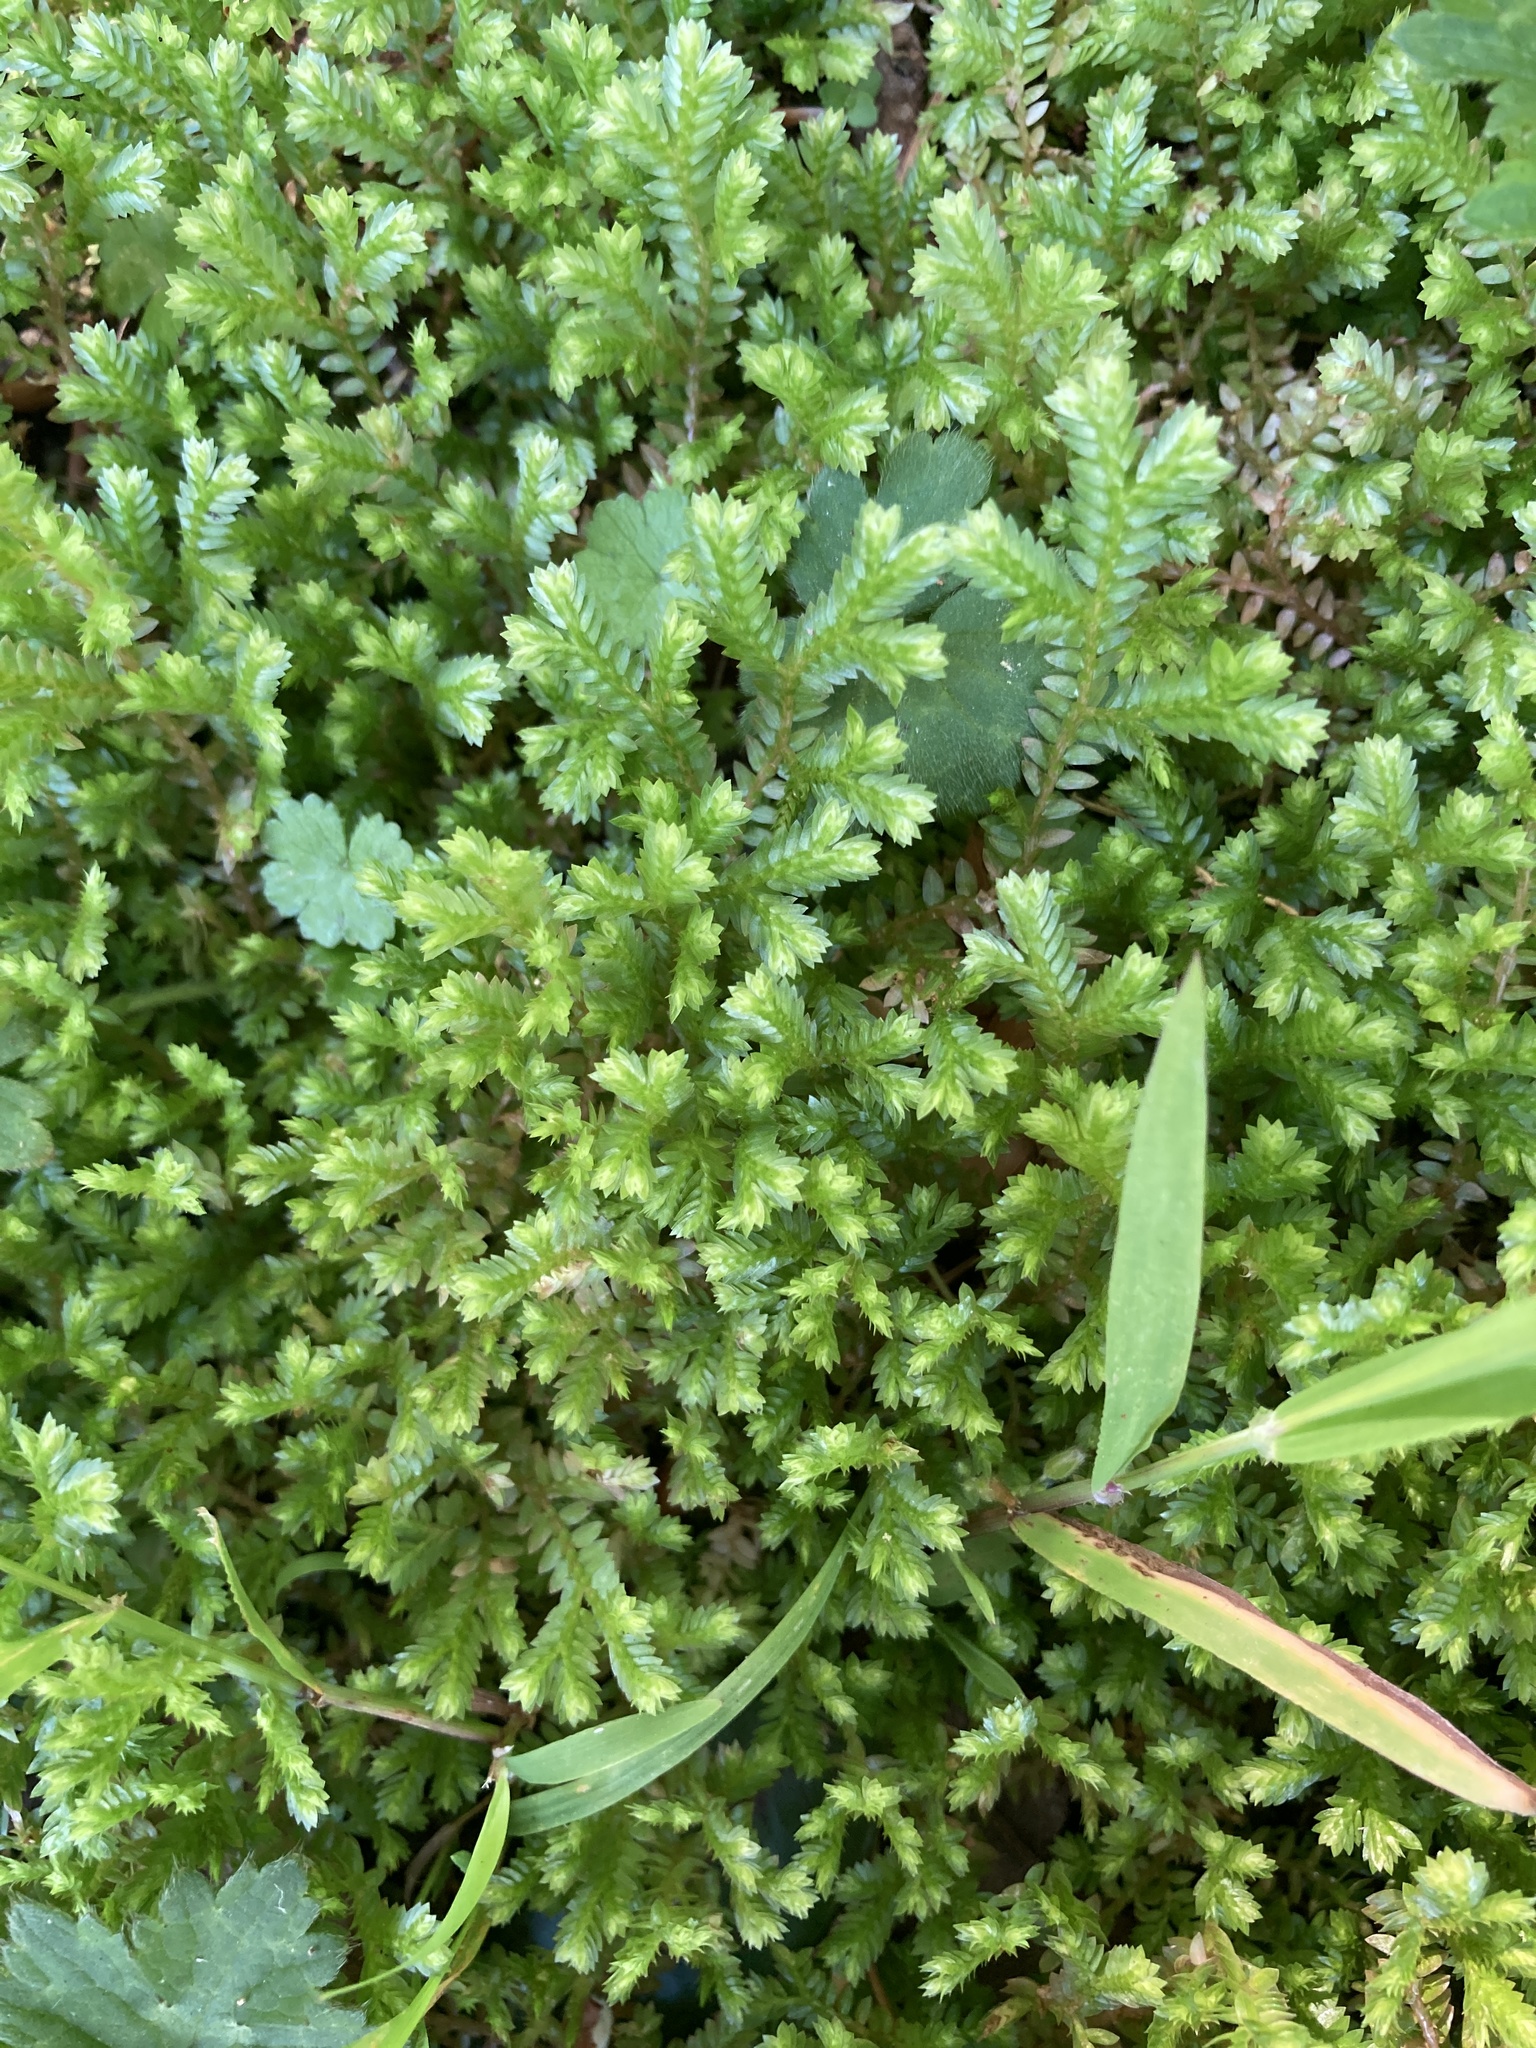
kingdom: Plantae
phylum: Tracheophyta
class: Lycopodiopsida
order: Selaginellales
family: Selaginellaceae
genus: Selaginella
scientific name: Selaginella kraussiana
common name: Krauss' spikemoss
